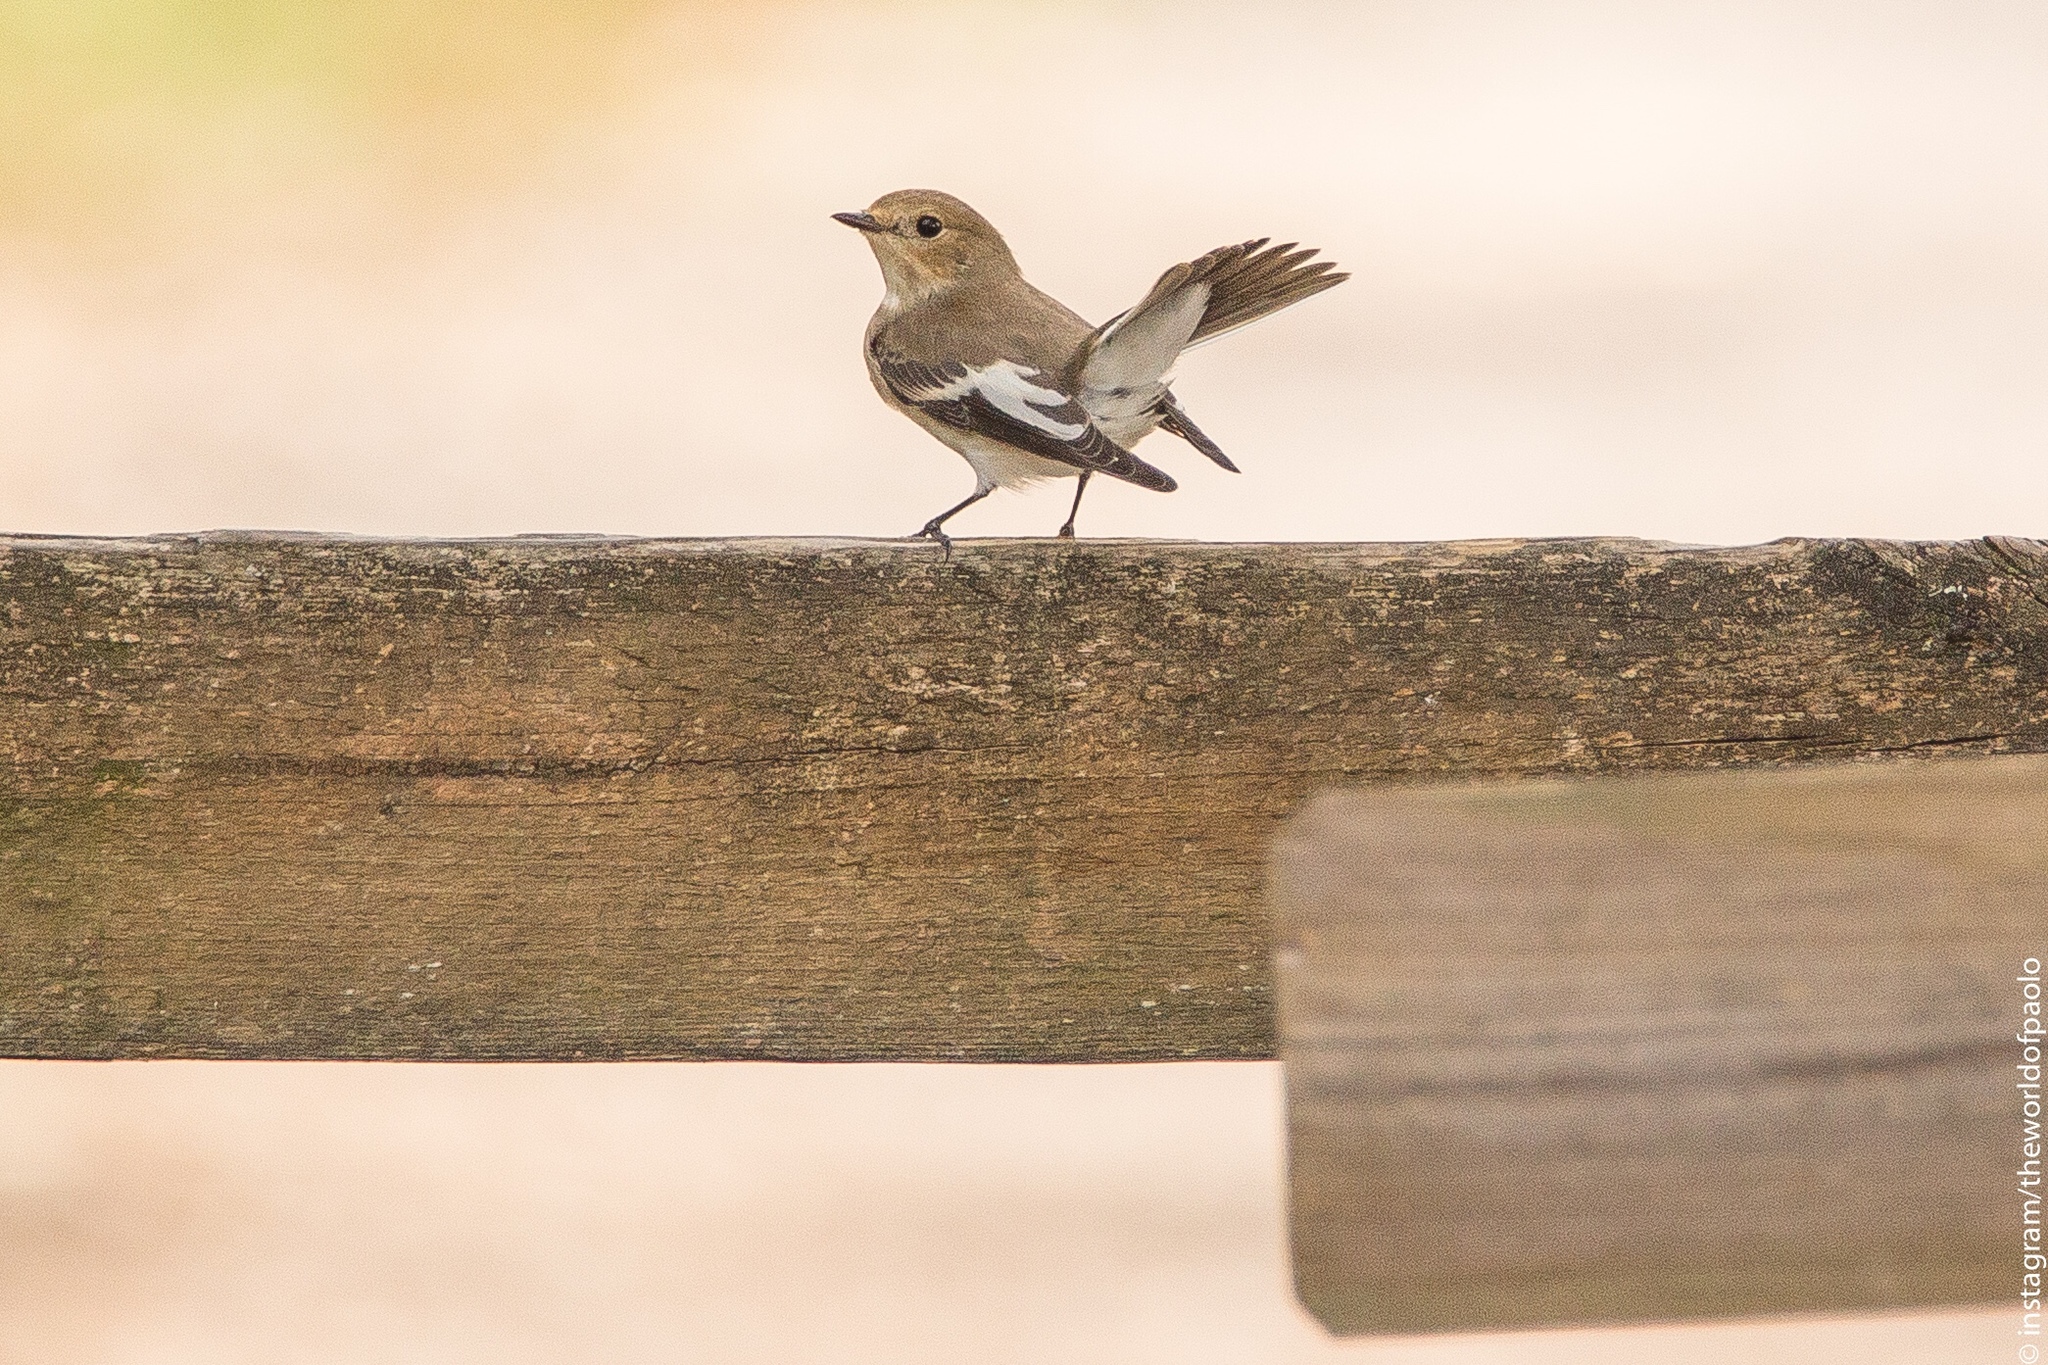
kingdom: Animalia
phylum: Chordata
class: Aves
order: Passeriformes
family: Muscicapidae
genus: Ficedula
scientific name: Ficedula hypoleuca
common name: European pied flycatcher
